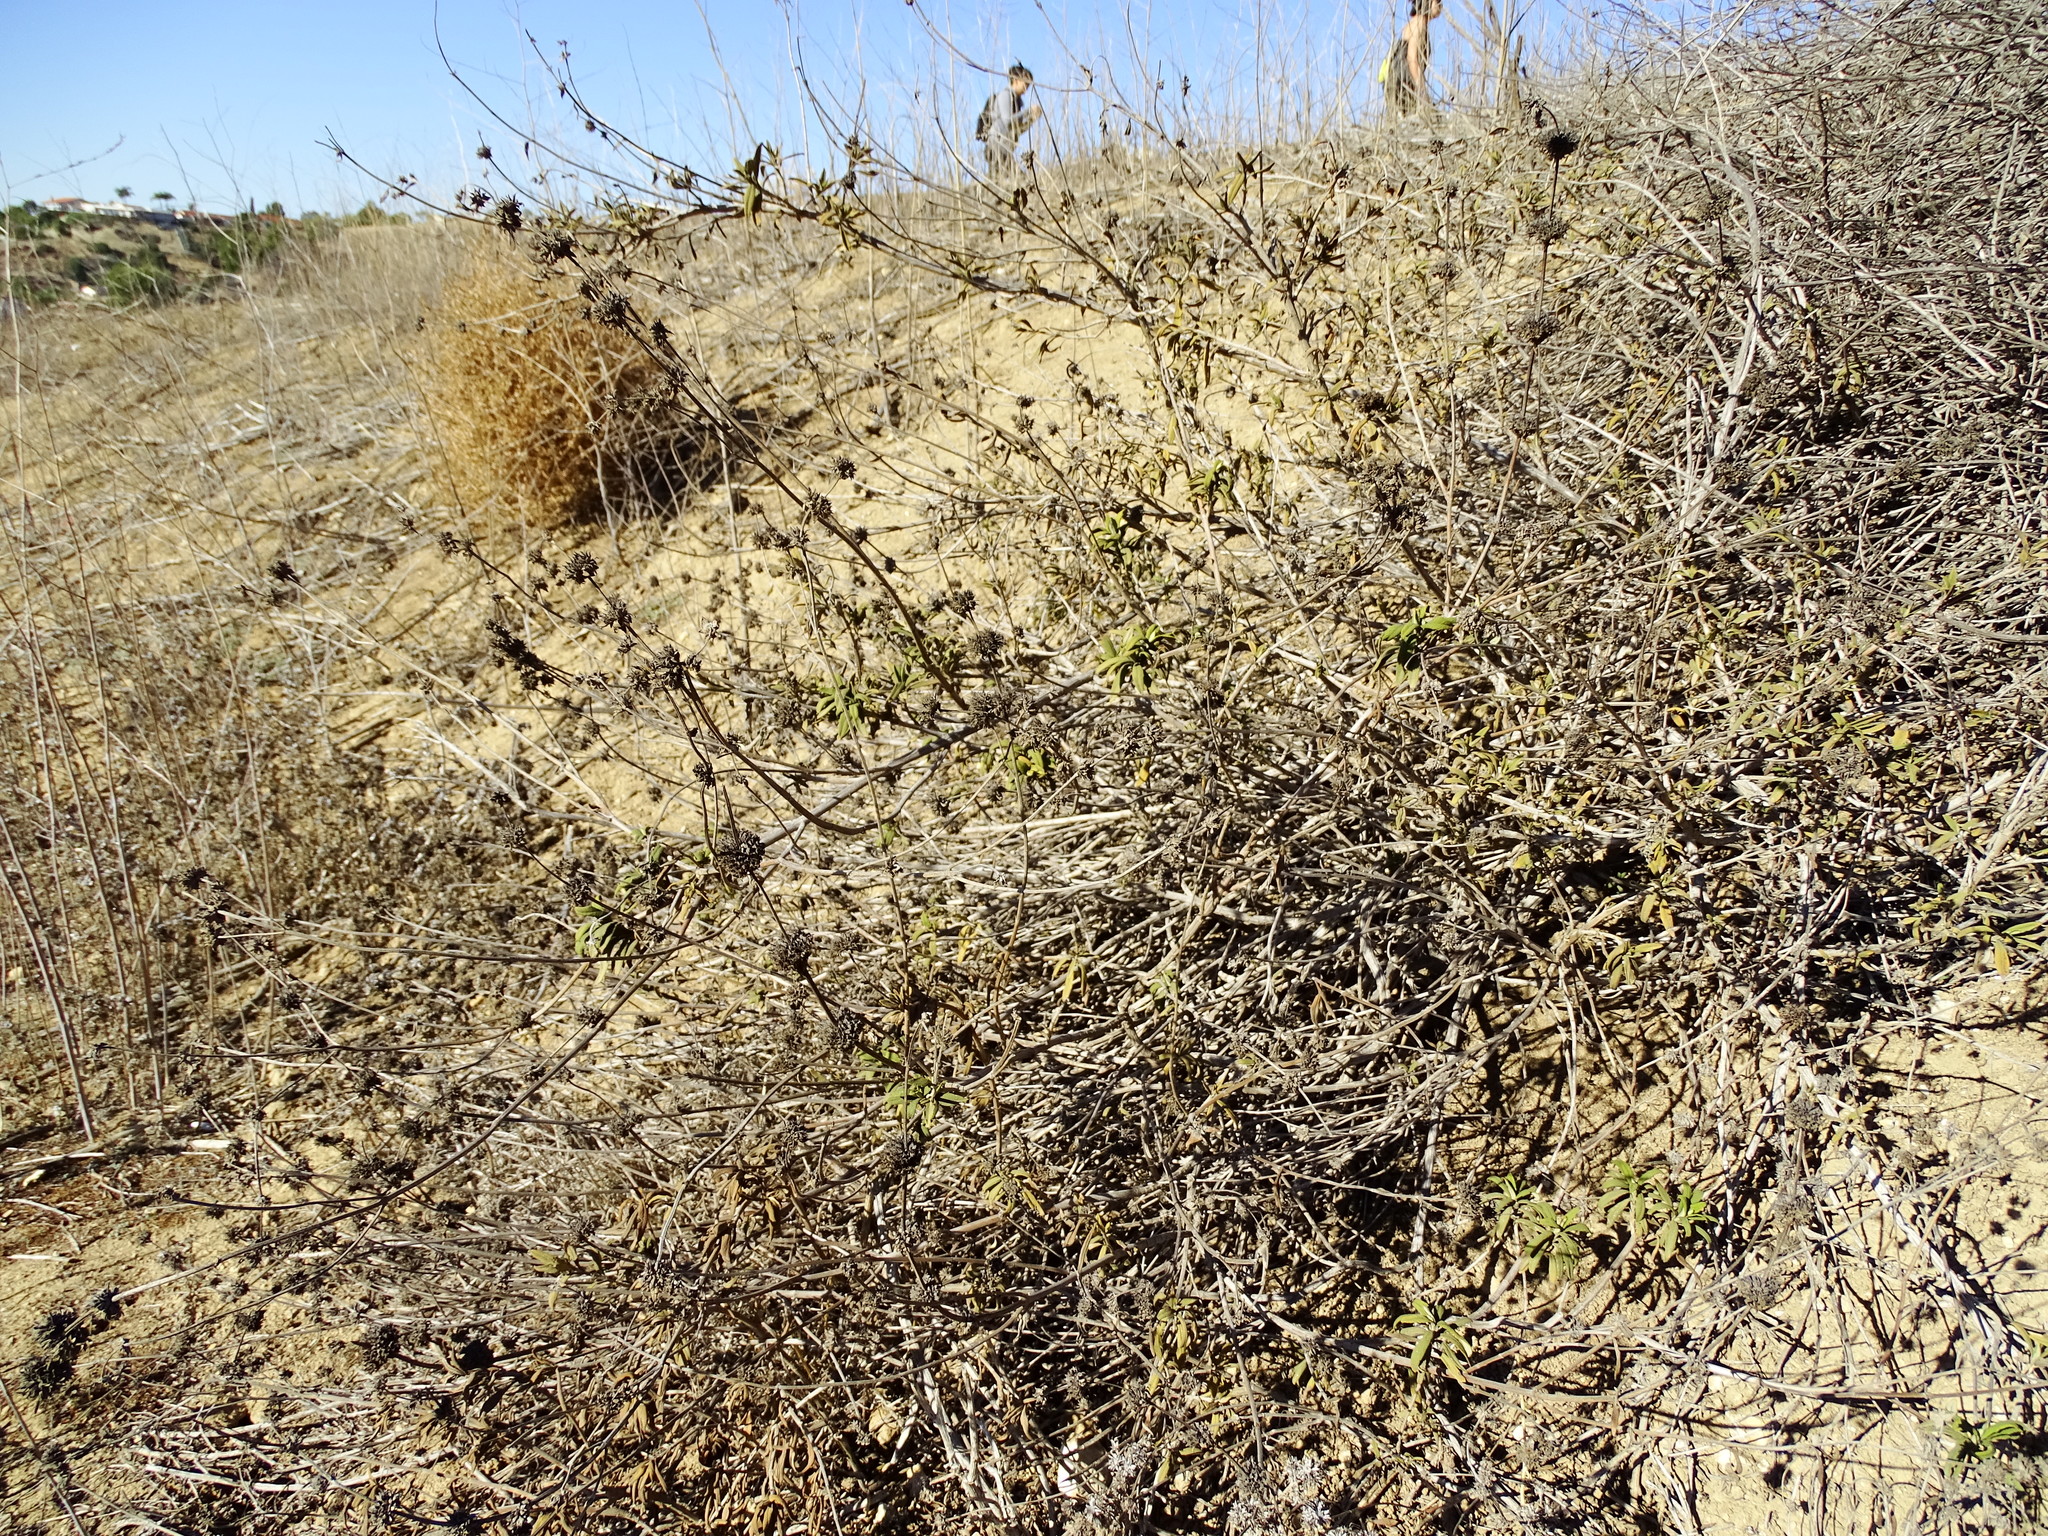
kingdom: Plantae
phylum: Tracheophyta
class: Magnoliopsida
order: Lamiales
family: Lamiaceae
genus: Salvia
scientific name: Salvia mellifera
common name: Black sage
